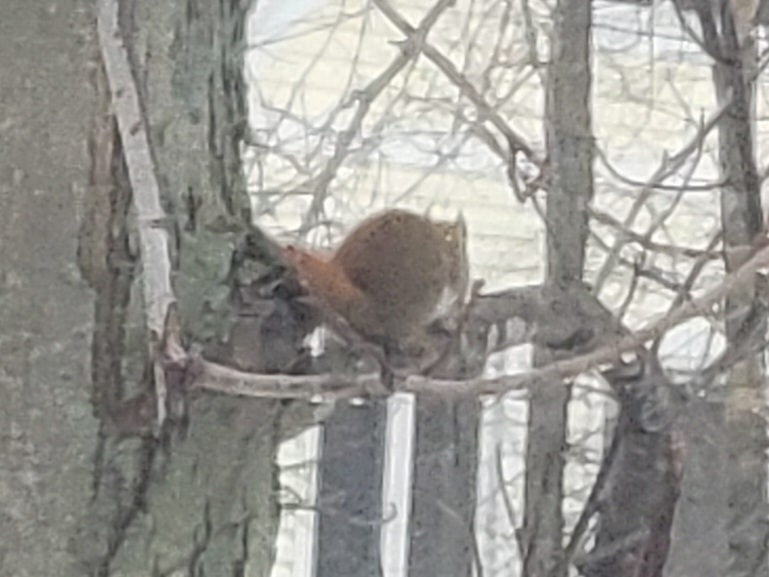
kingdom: Animalia
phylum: Chordata
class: Mammalia
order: Rodentia
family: Sciuridae
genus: Tamiasciurus
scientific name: Tamiasciurus hudsonicus
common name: Red squirrel
